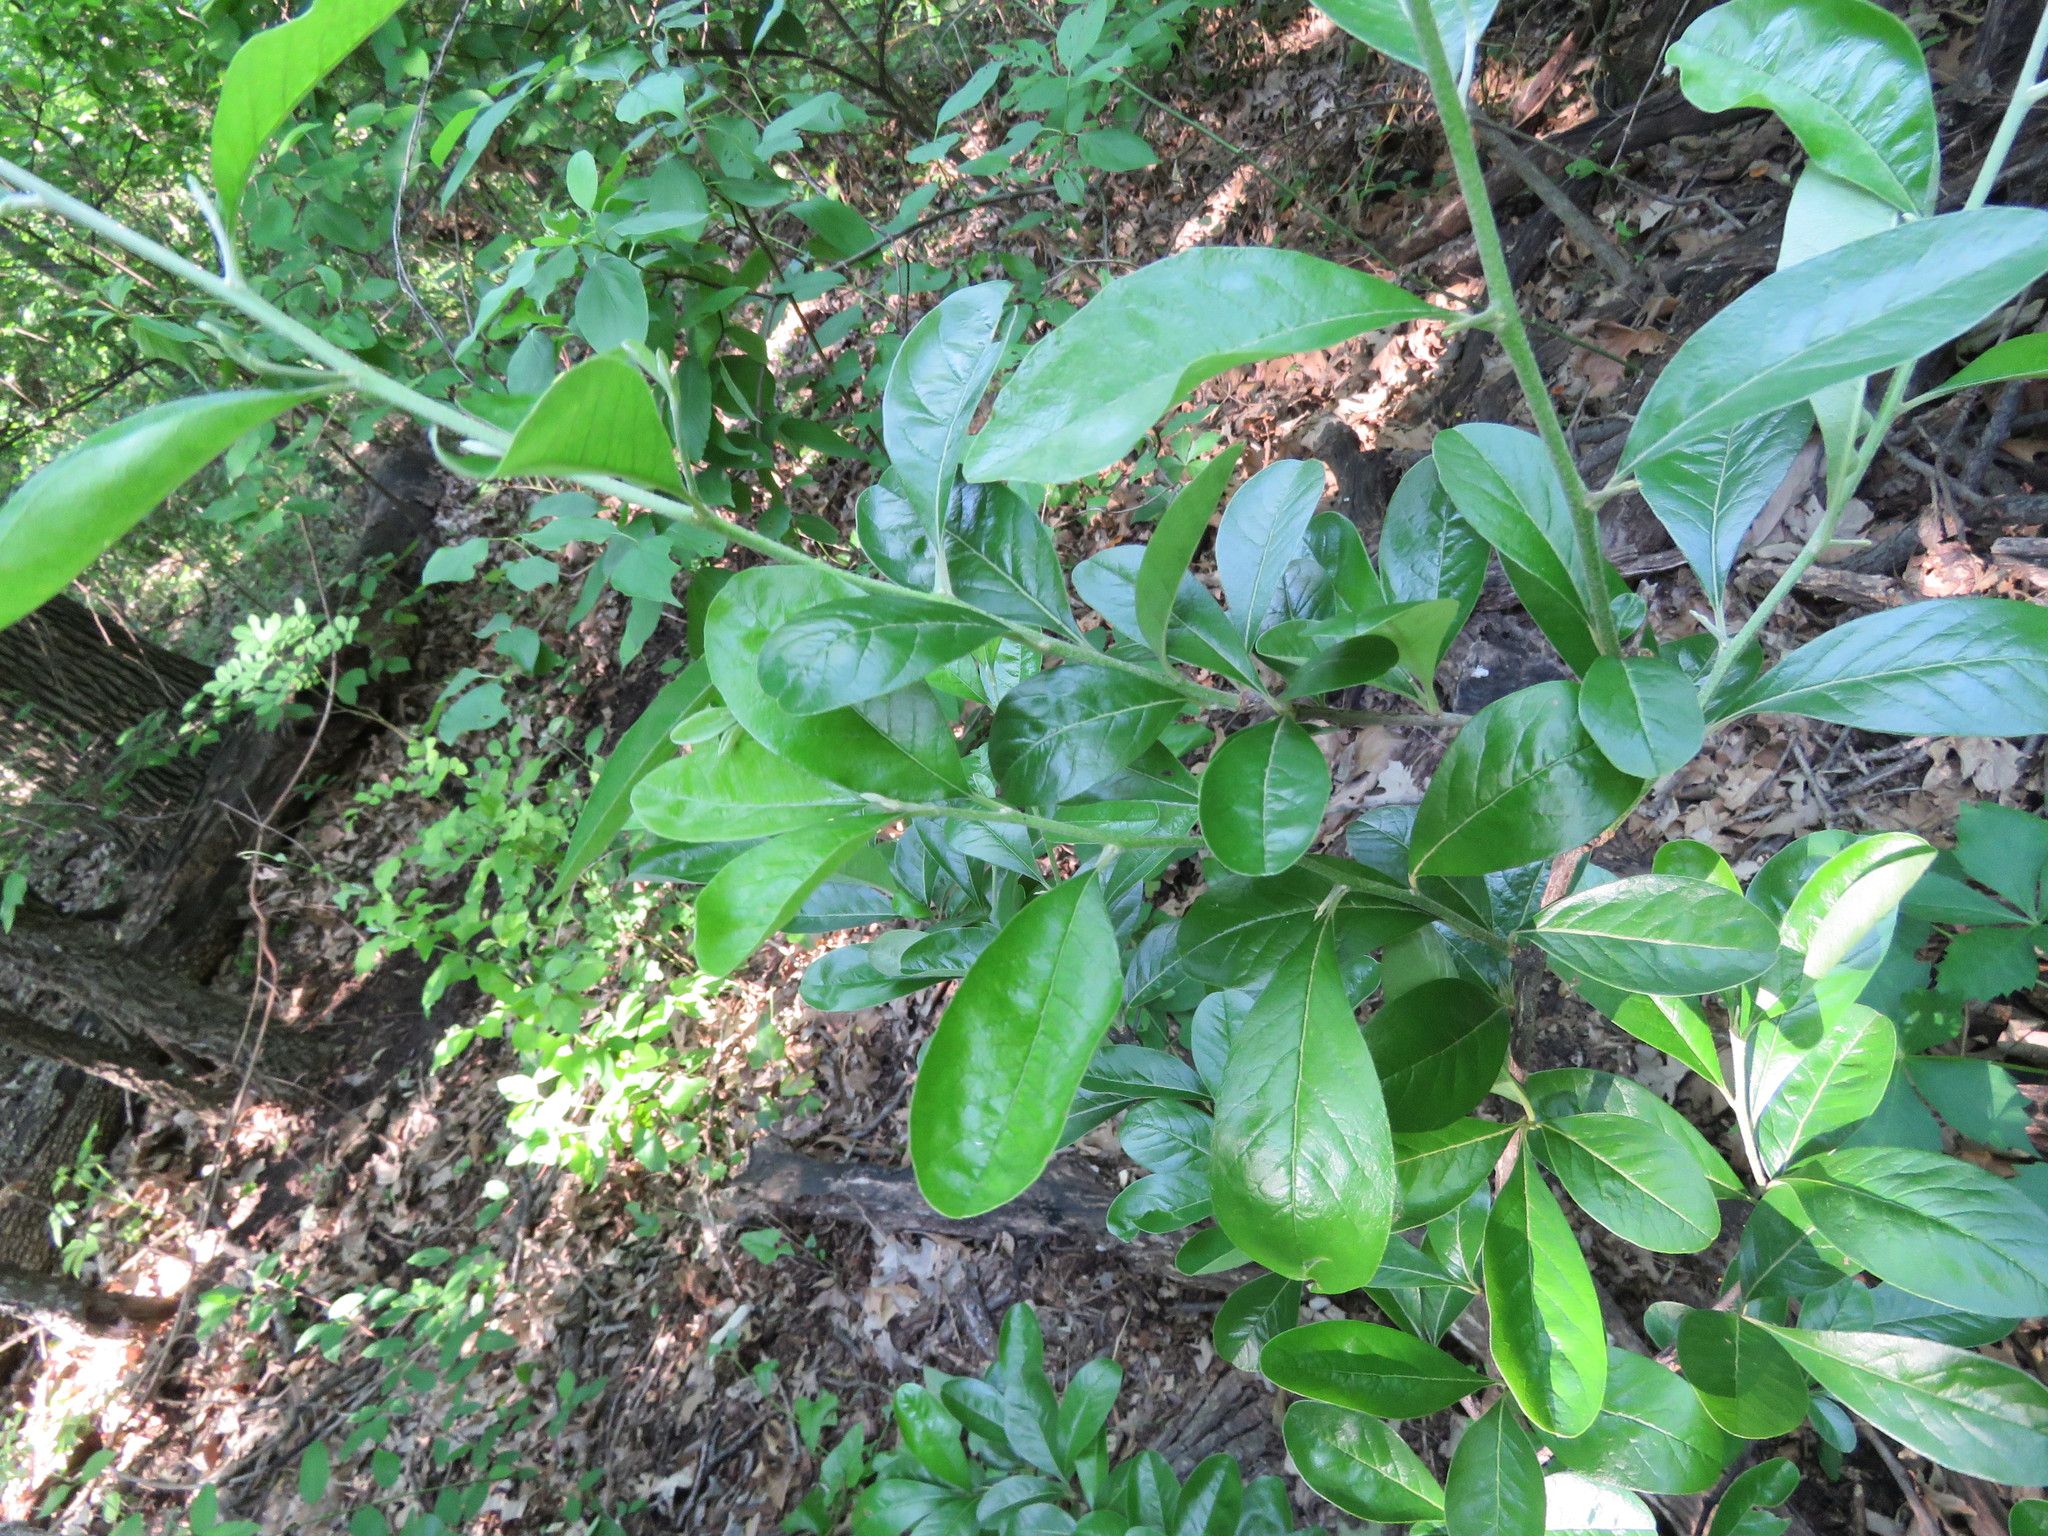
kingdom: Plantae
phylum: Tracheophyta
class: Magnoliopsida
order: Ericales
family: Sapotaceae
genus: Sideroxylon
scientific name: Sideroxylon lanuginosum
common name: Chittamwood
